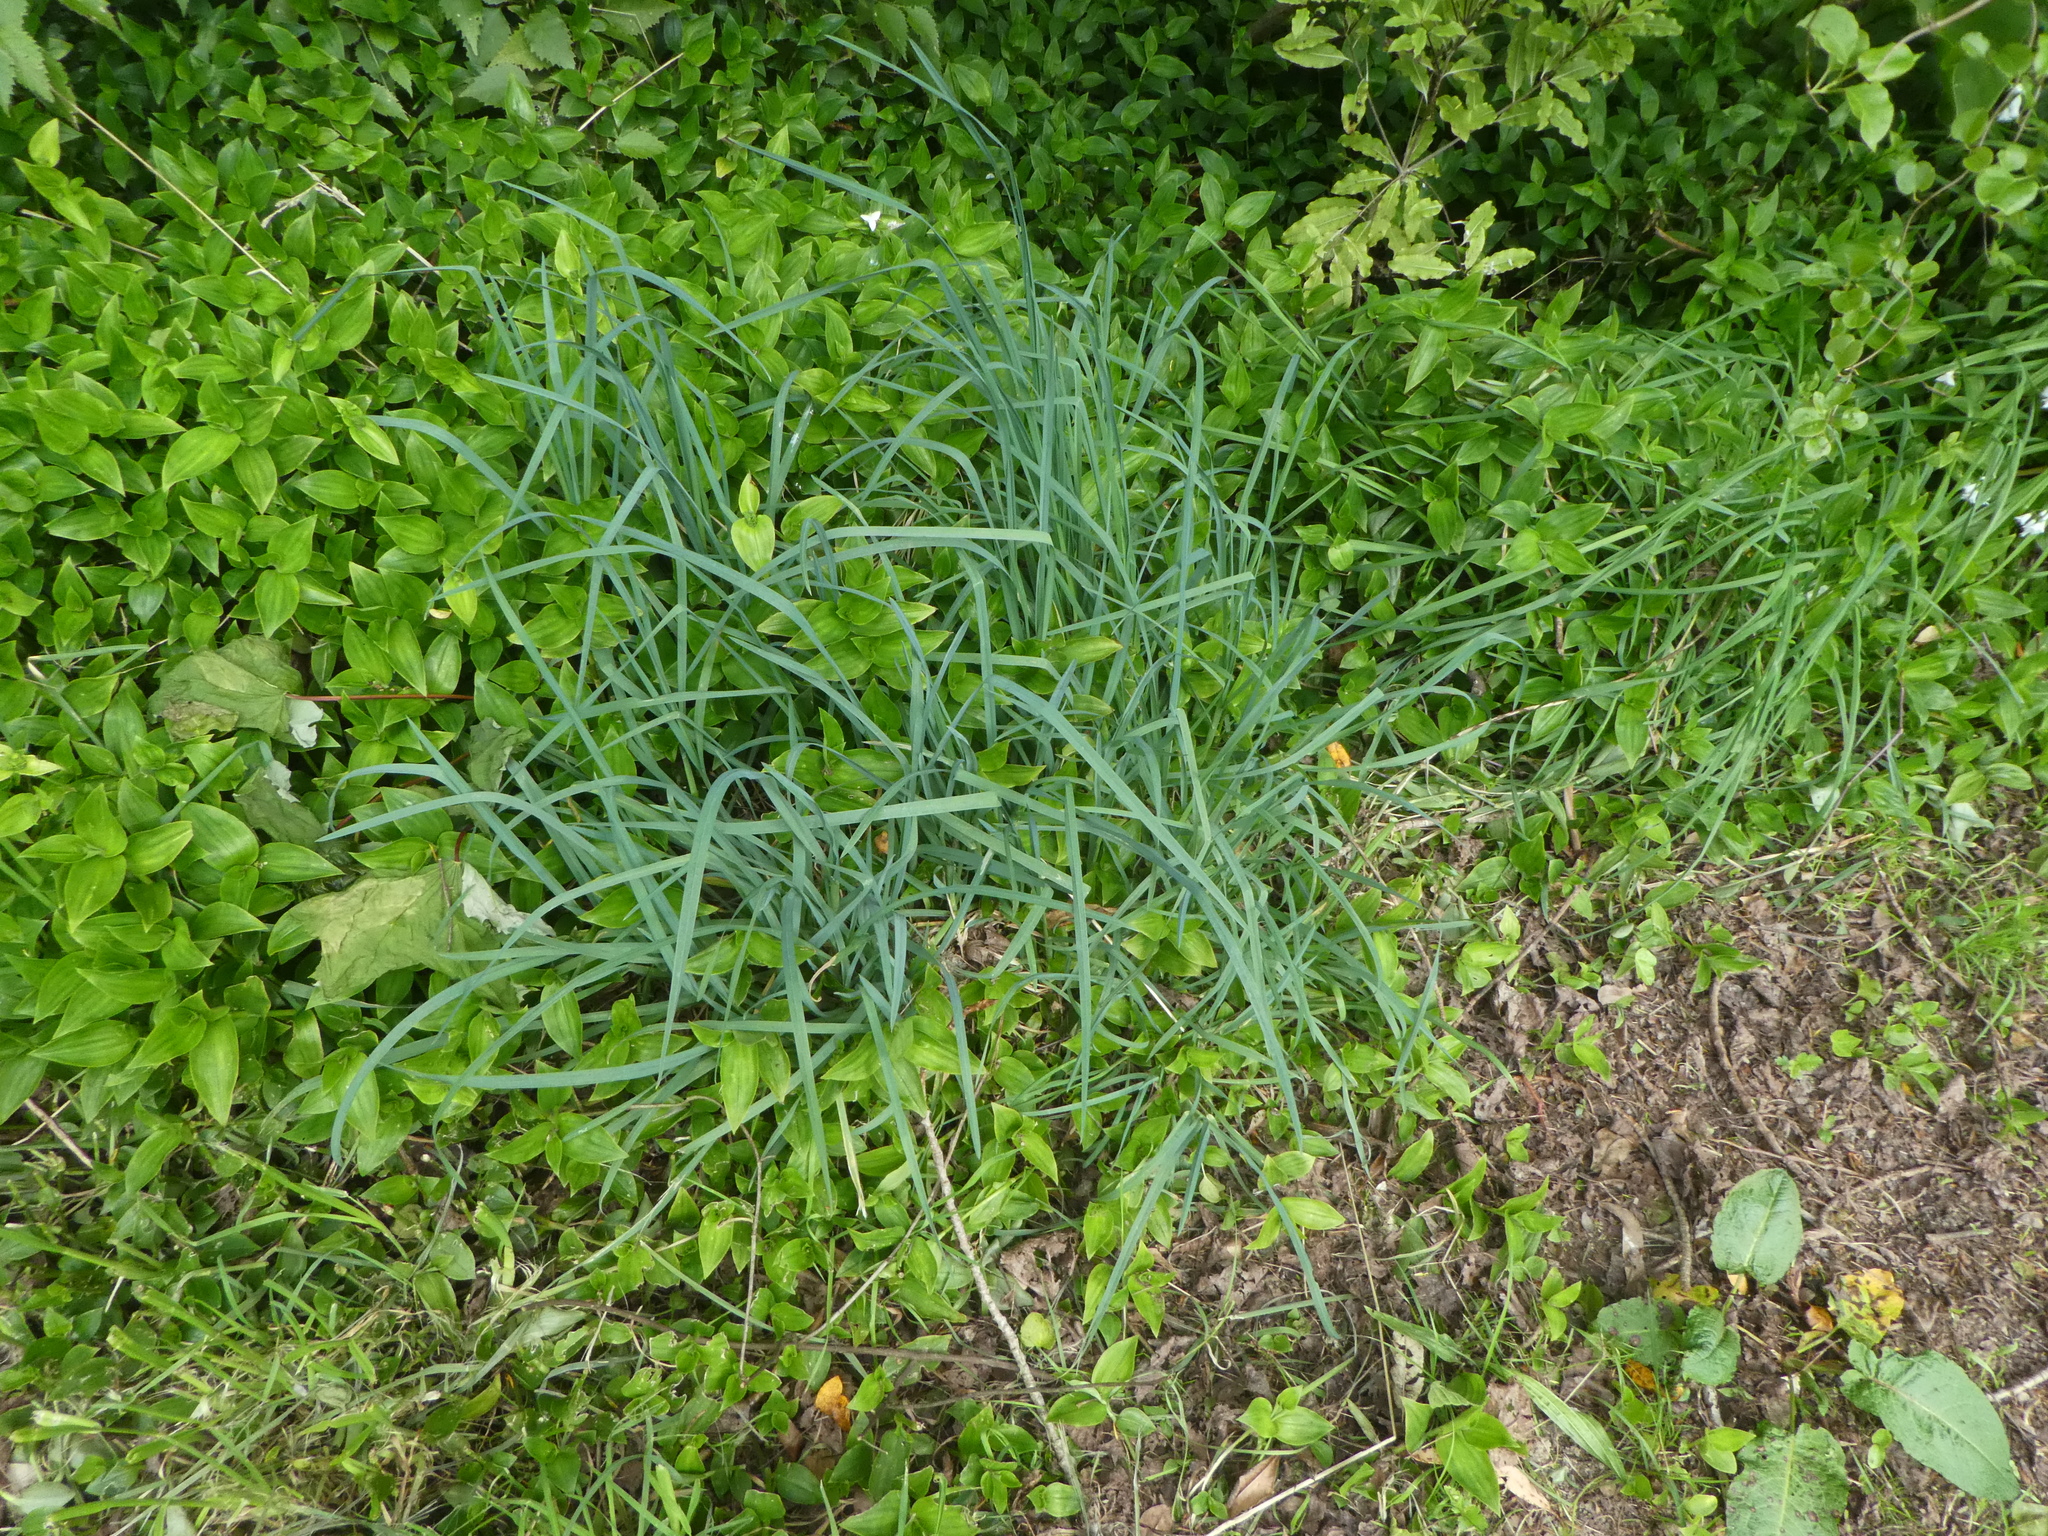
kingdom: Plantae
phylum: Tracheophyta
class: Liliopsida
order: Poales
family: Poaceae
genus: Dactylis
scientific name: Dactylis glomerata
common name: Orchardgrass
